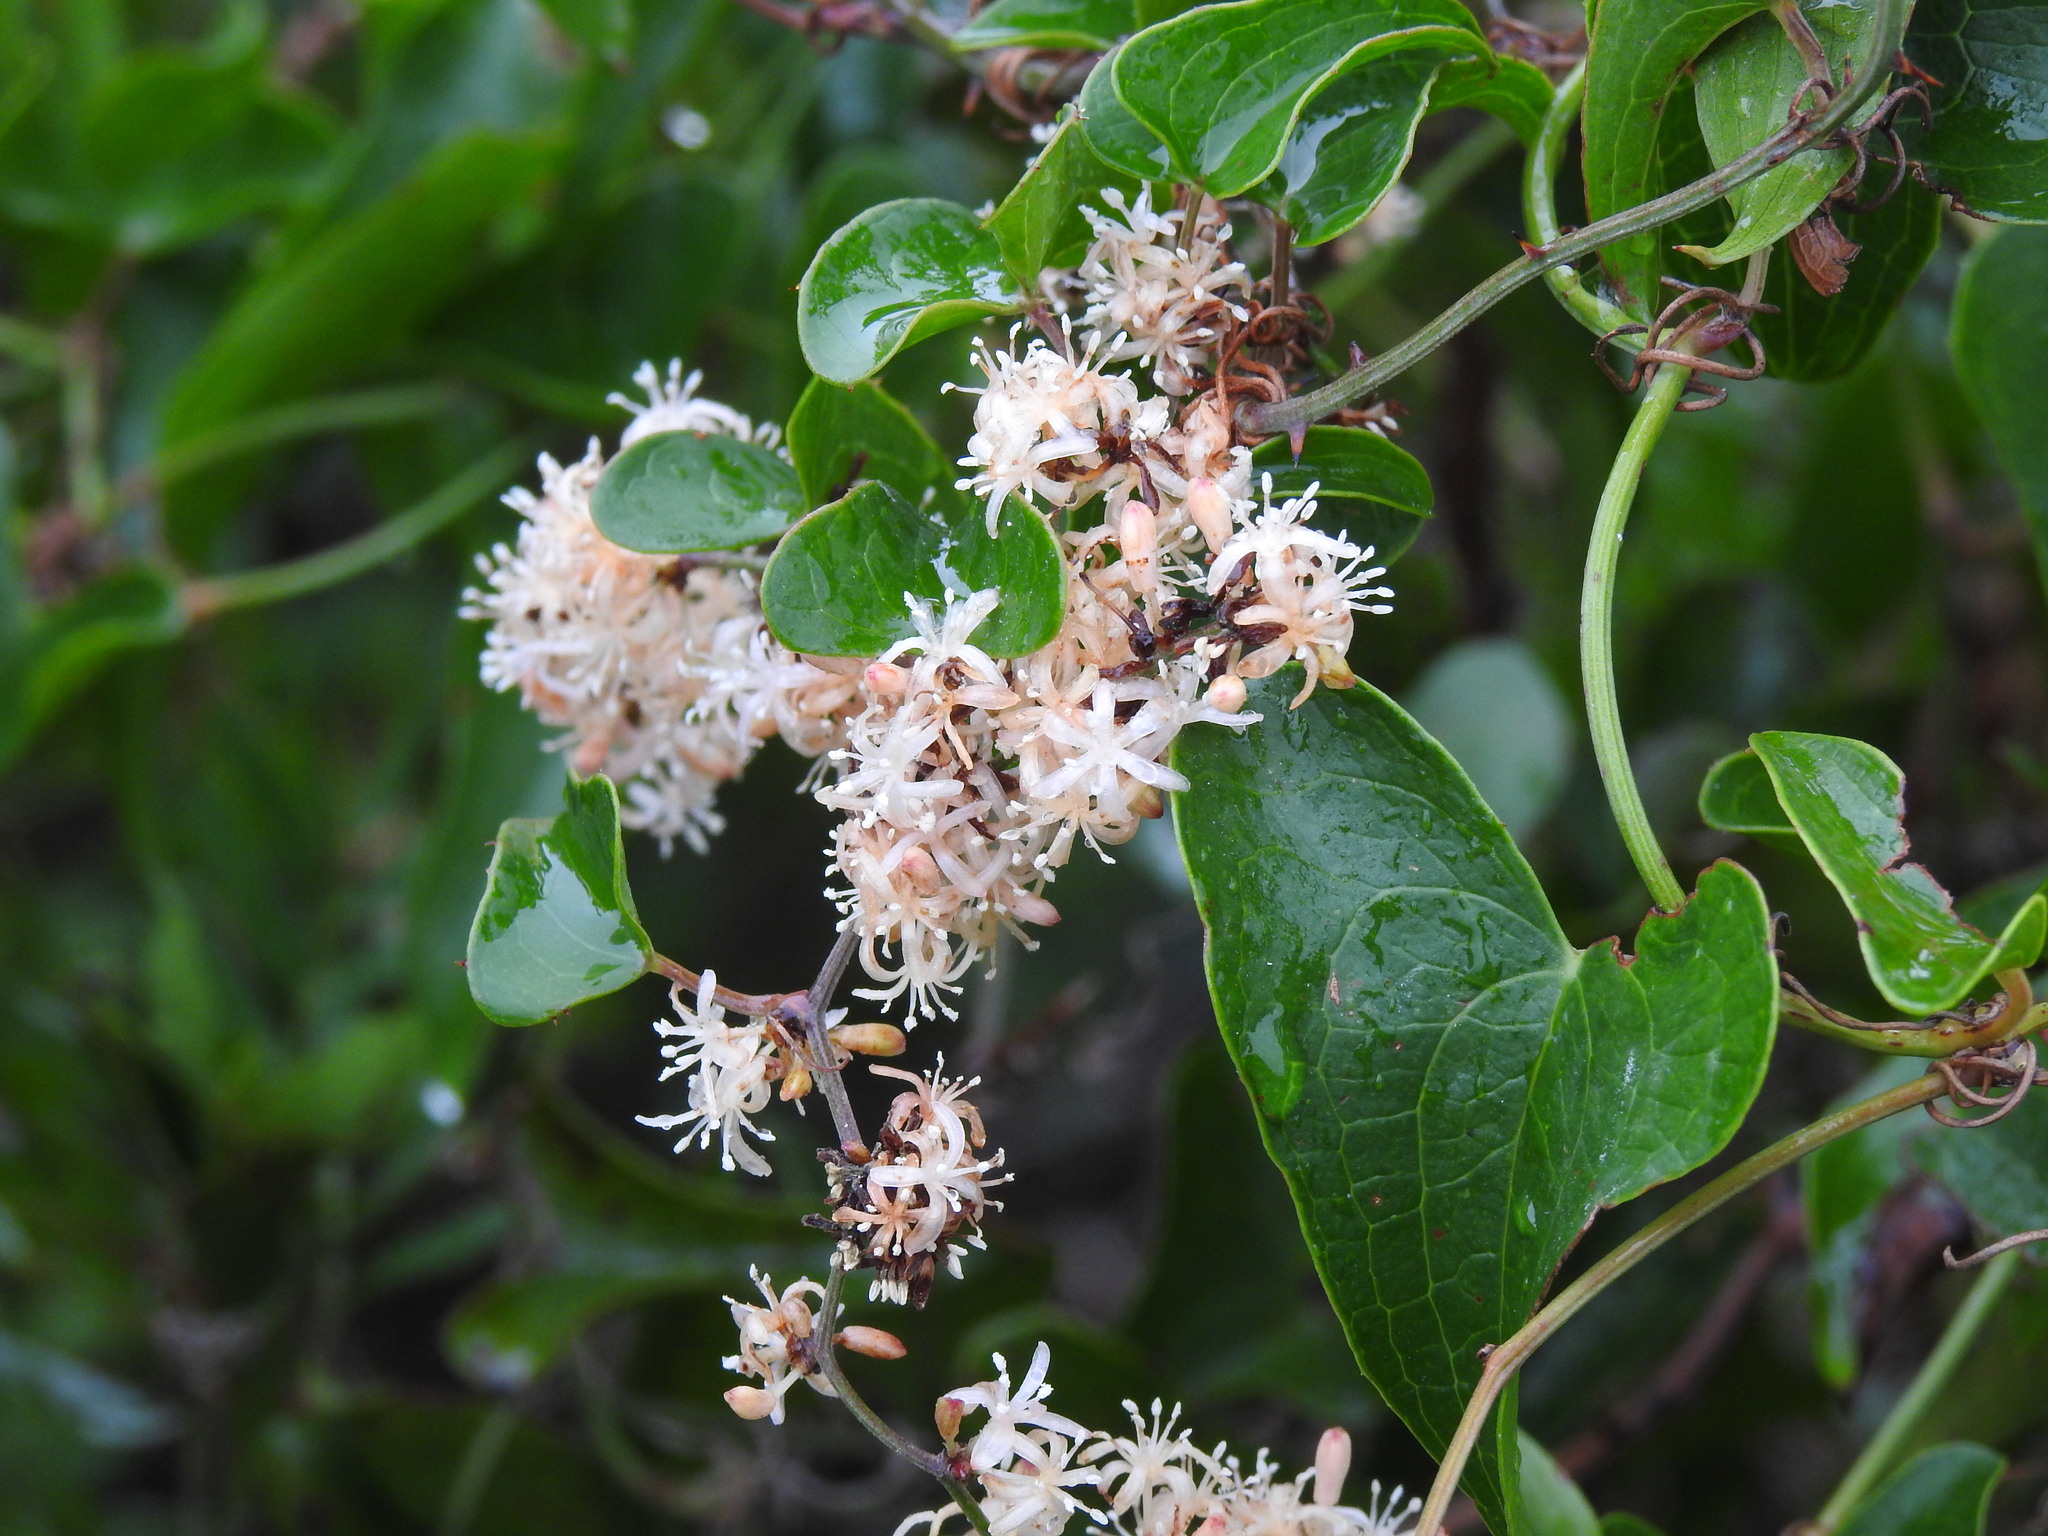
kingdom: Plantae
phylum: Tracheophyta
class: Liliopsida
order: Liliales
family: Smilacaceae
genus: Smilax
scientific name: Smilax aspera
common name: Common smilax
